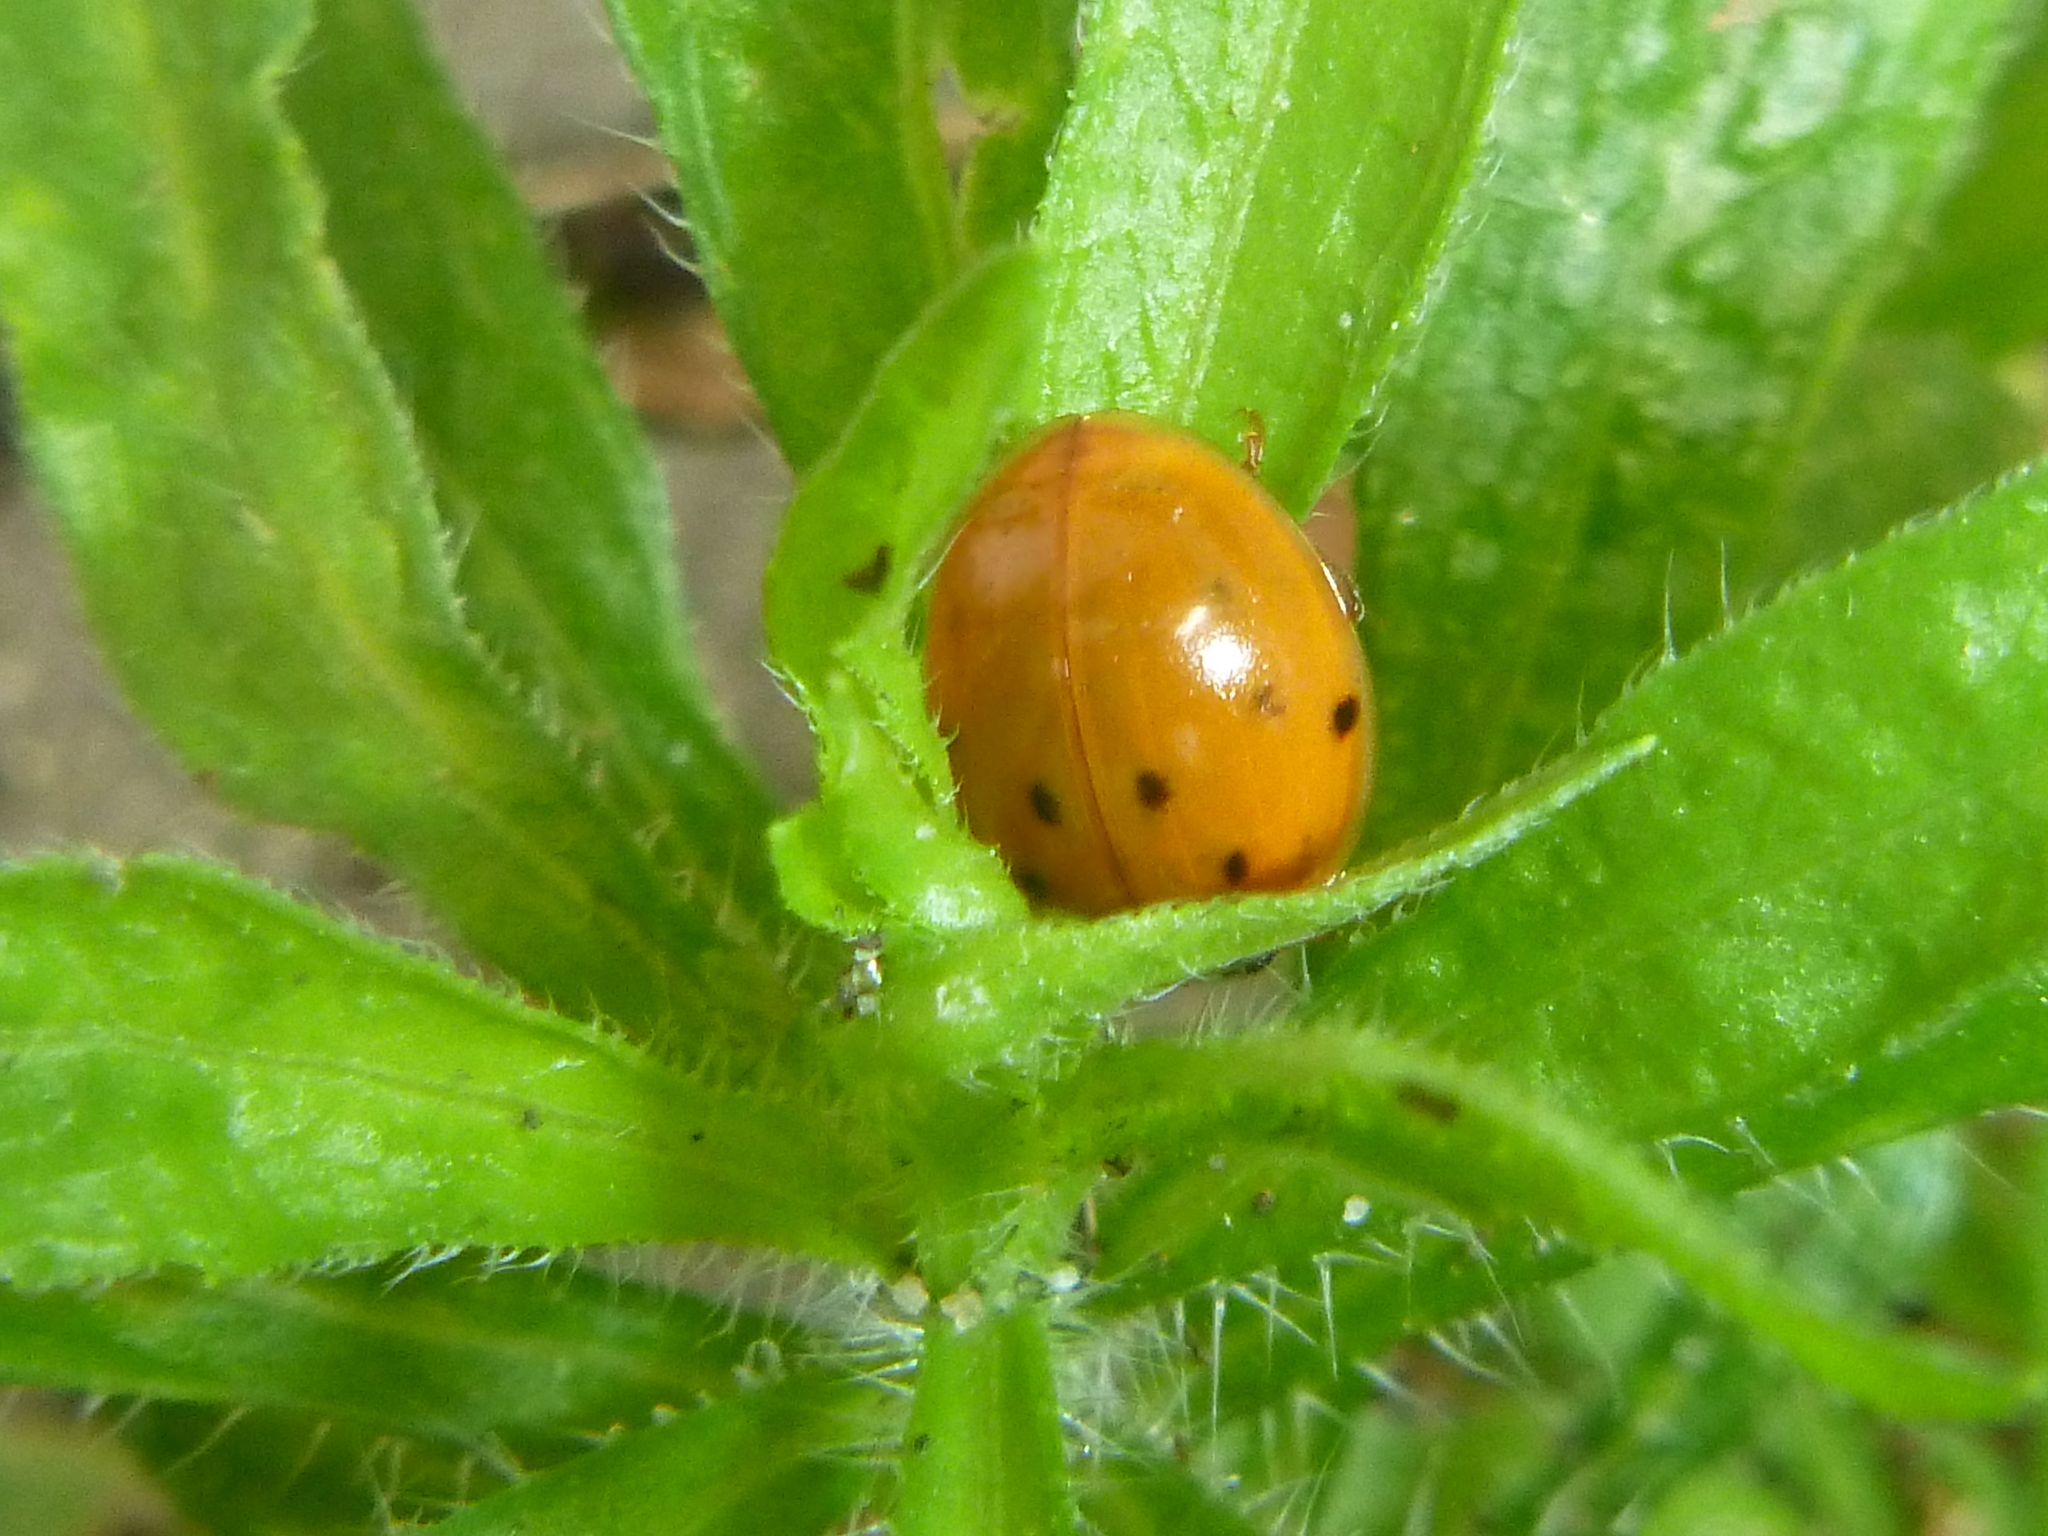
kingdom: Animalia
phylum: Arthropoda
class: Insecta
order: Coleoptera
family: Coccinellidae
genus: Harmonia
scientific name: Harmonia axyridis
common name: Harlequin ladybird
